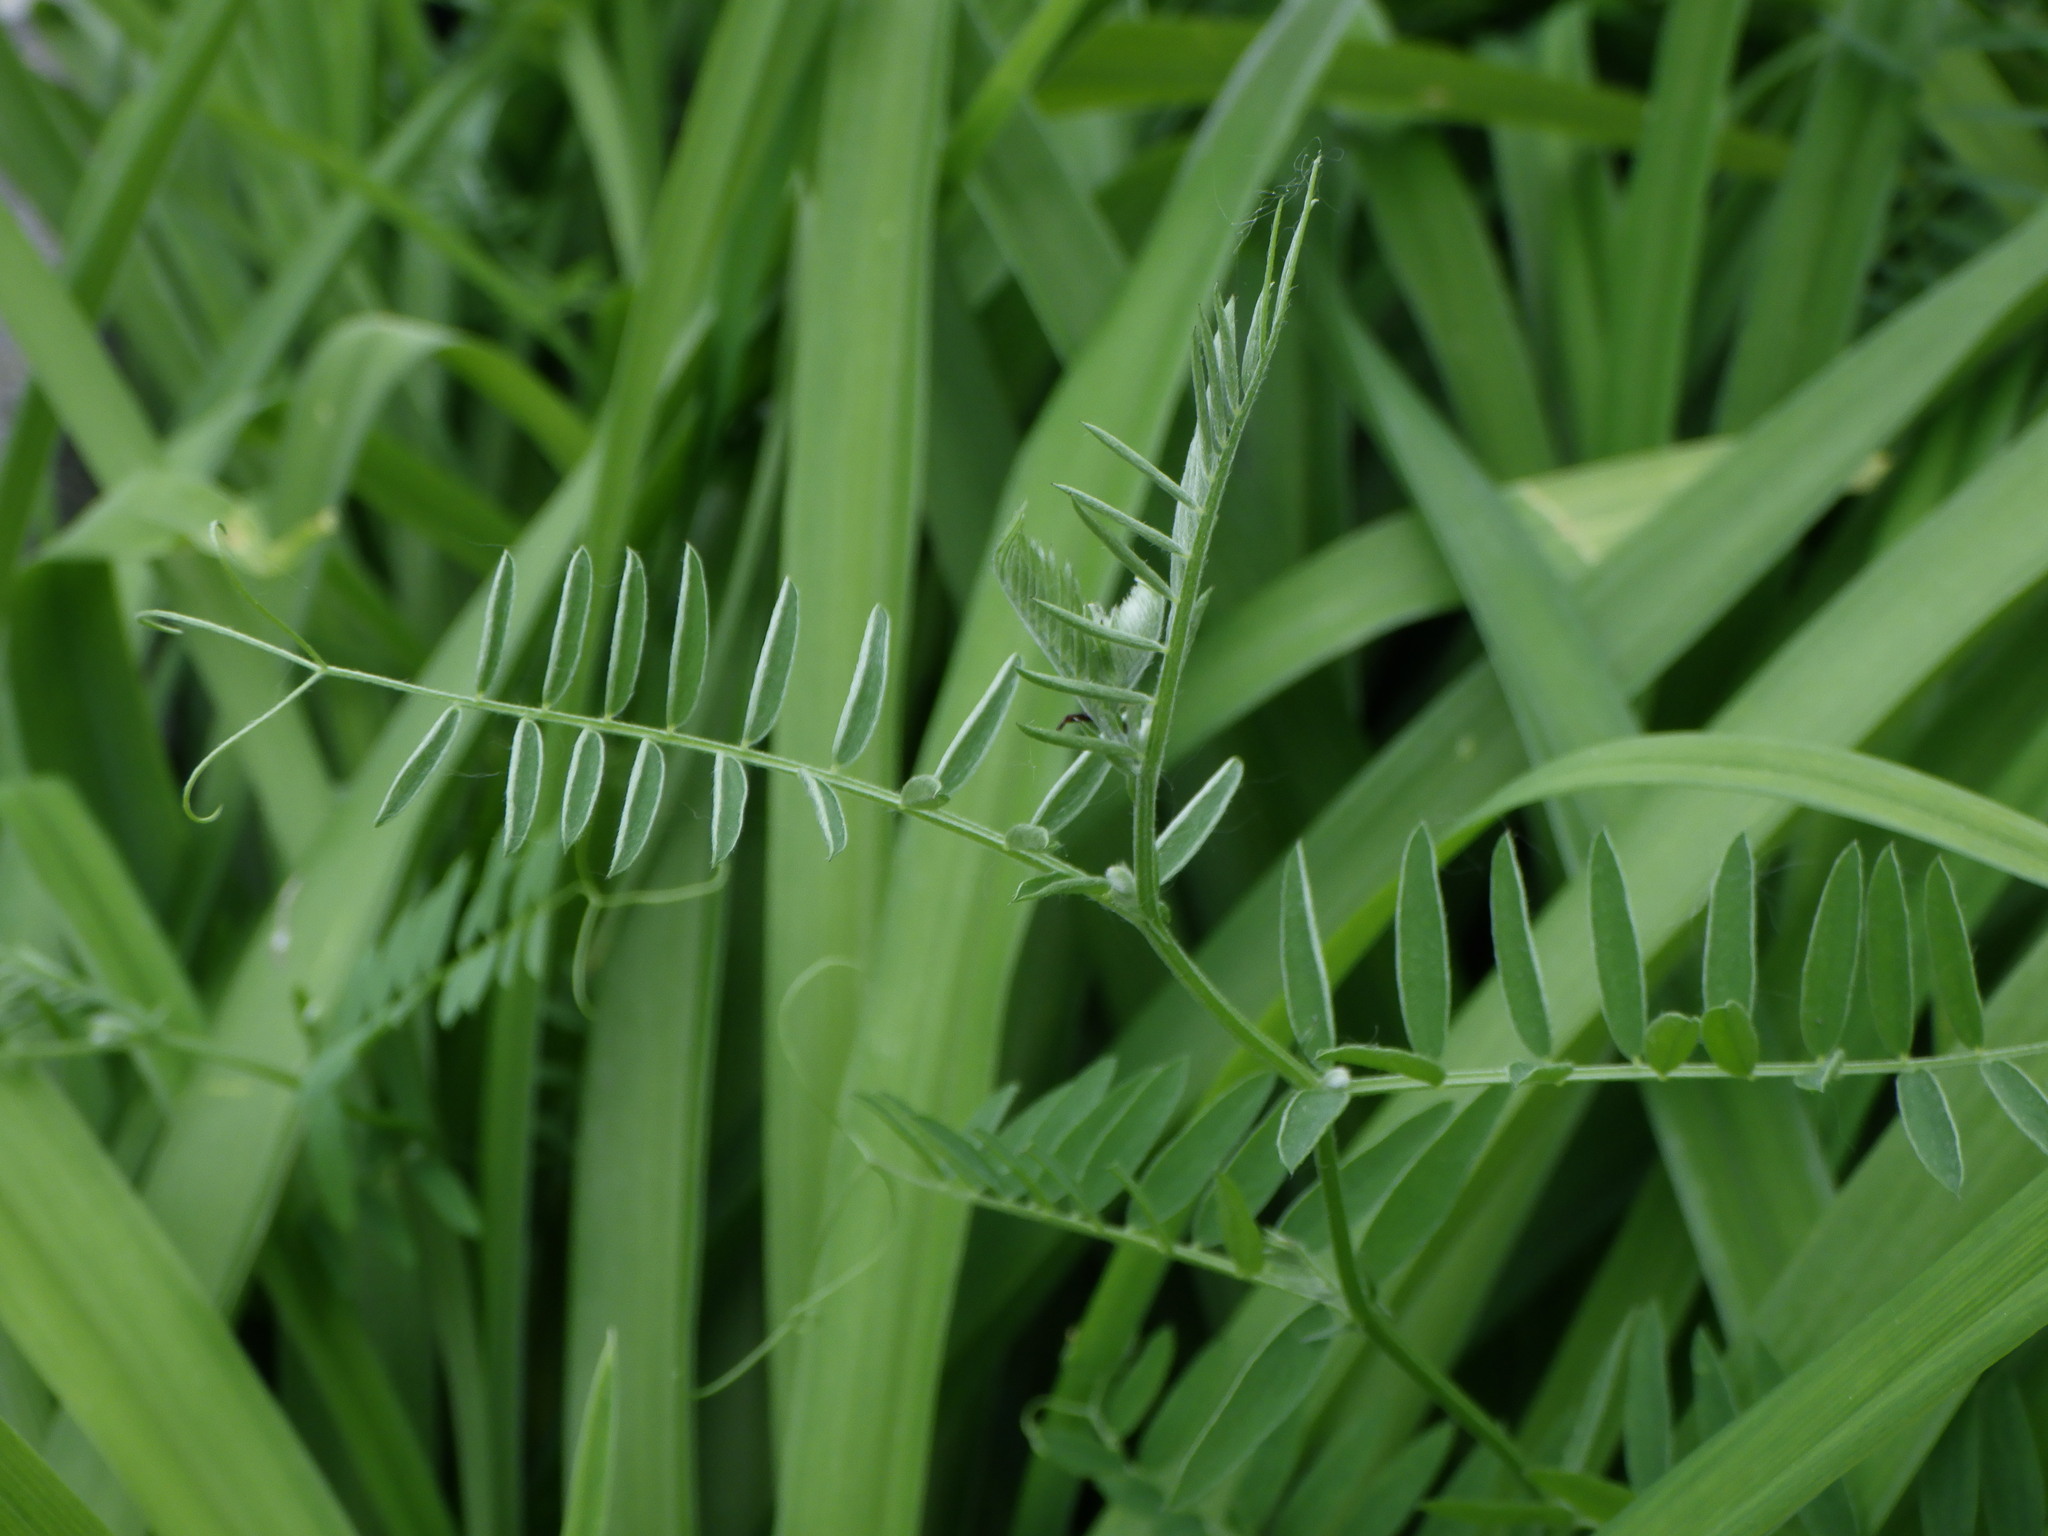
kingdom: Plantae
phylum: Tracheophyta
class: Magnoliopsida
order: Fabales
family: Fabaceae
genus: Vicia
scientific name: Vicia cracca
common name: Bird vetch
